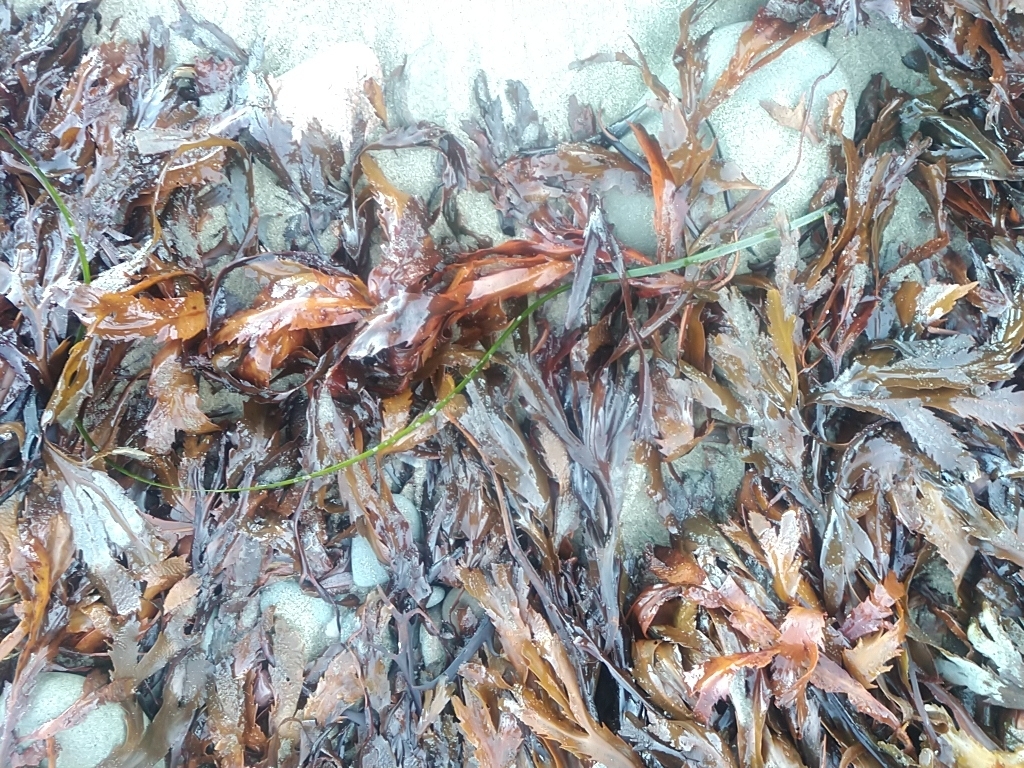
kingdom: Plantae
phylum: Tracheophyta
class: Liliopsida
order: Alismatales
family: Zosteraceae
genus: Zostera
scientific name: Zostera marina
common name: Eelgrass
